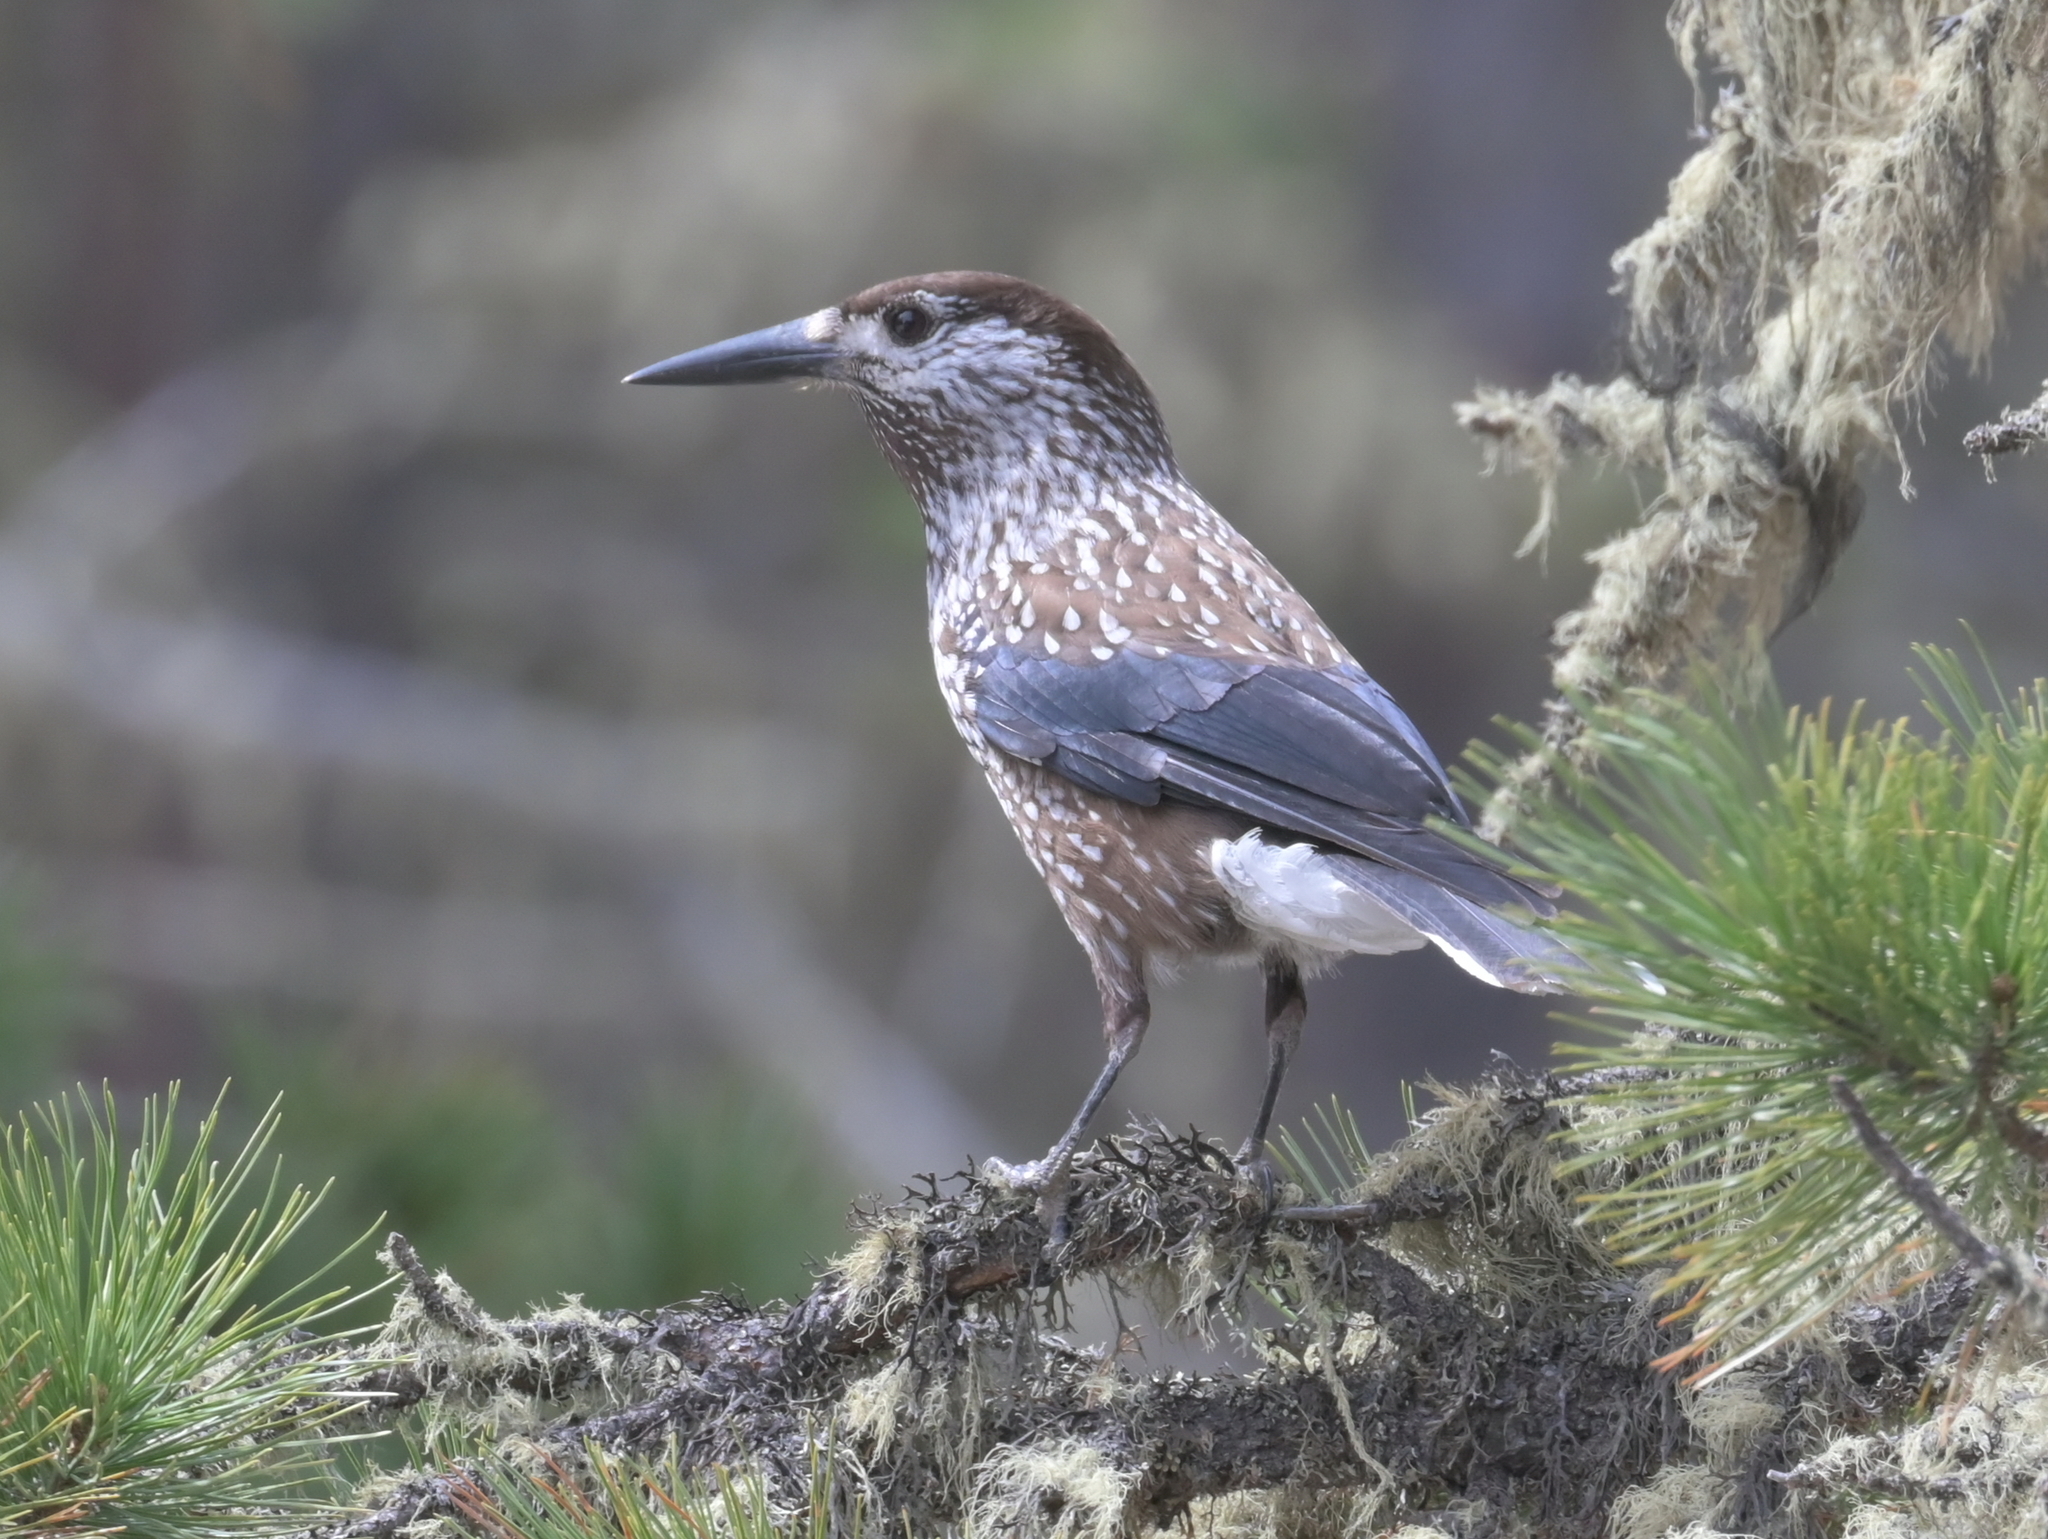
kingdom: Animalia
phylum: Chordata
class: Aves
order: Passeriformes
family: Corvidae
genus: Nucifraga
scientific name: Nucifraga caryocatactes
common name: Spotted nutcracker
